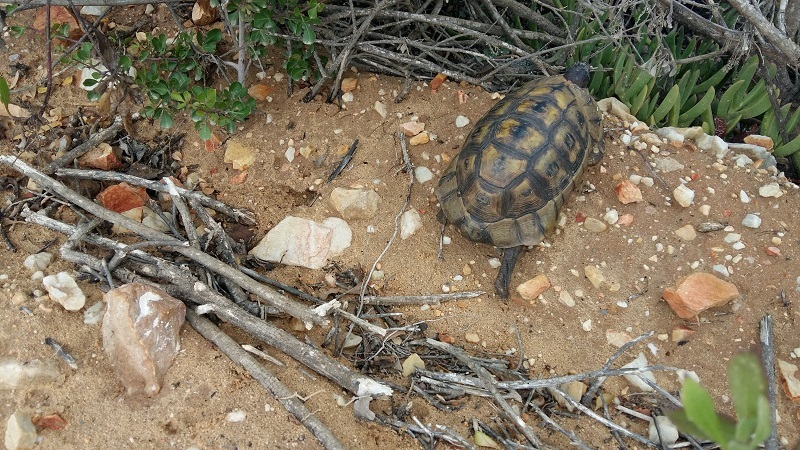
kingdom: Animalia
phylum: Chordata
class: Testudines
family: Testudinidae
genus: Chersina
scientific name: Chersina angulata
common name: South african bowsprit tortoise
